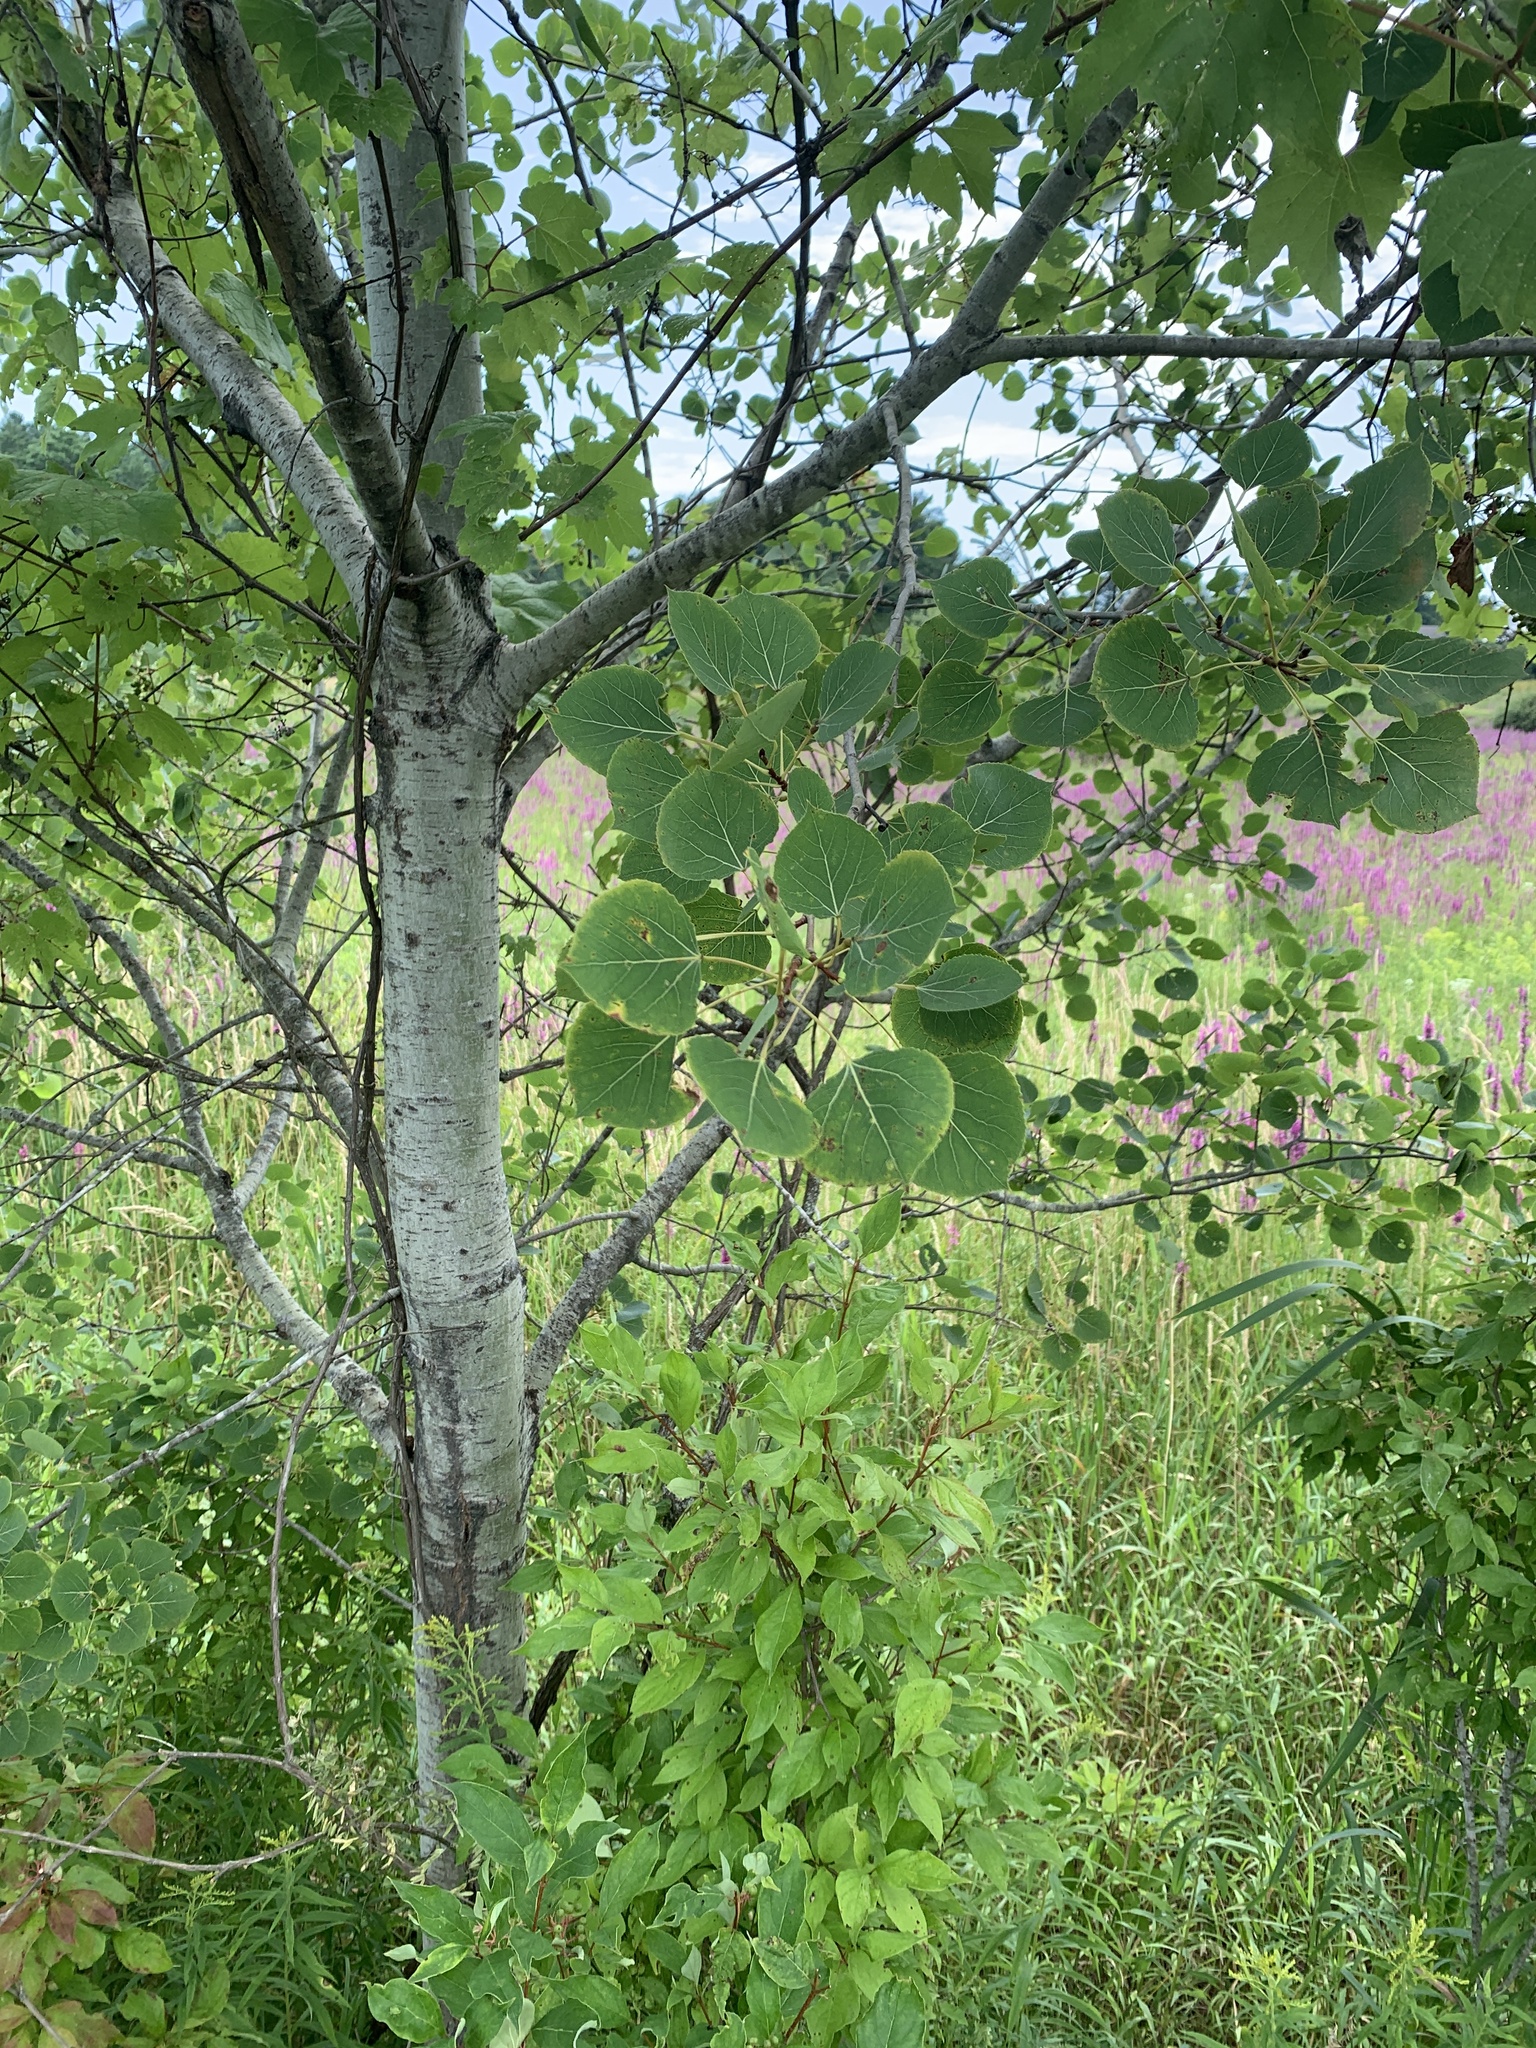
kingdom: Plantae
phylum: Tracheophyta
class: Magnoliopsida
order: Malpighiales
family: Salicaceae
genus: Populus
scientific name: Populus tremuloides
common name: Quaking aspen
